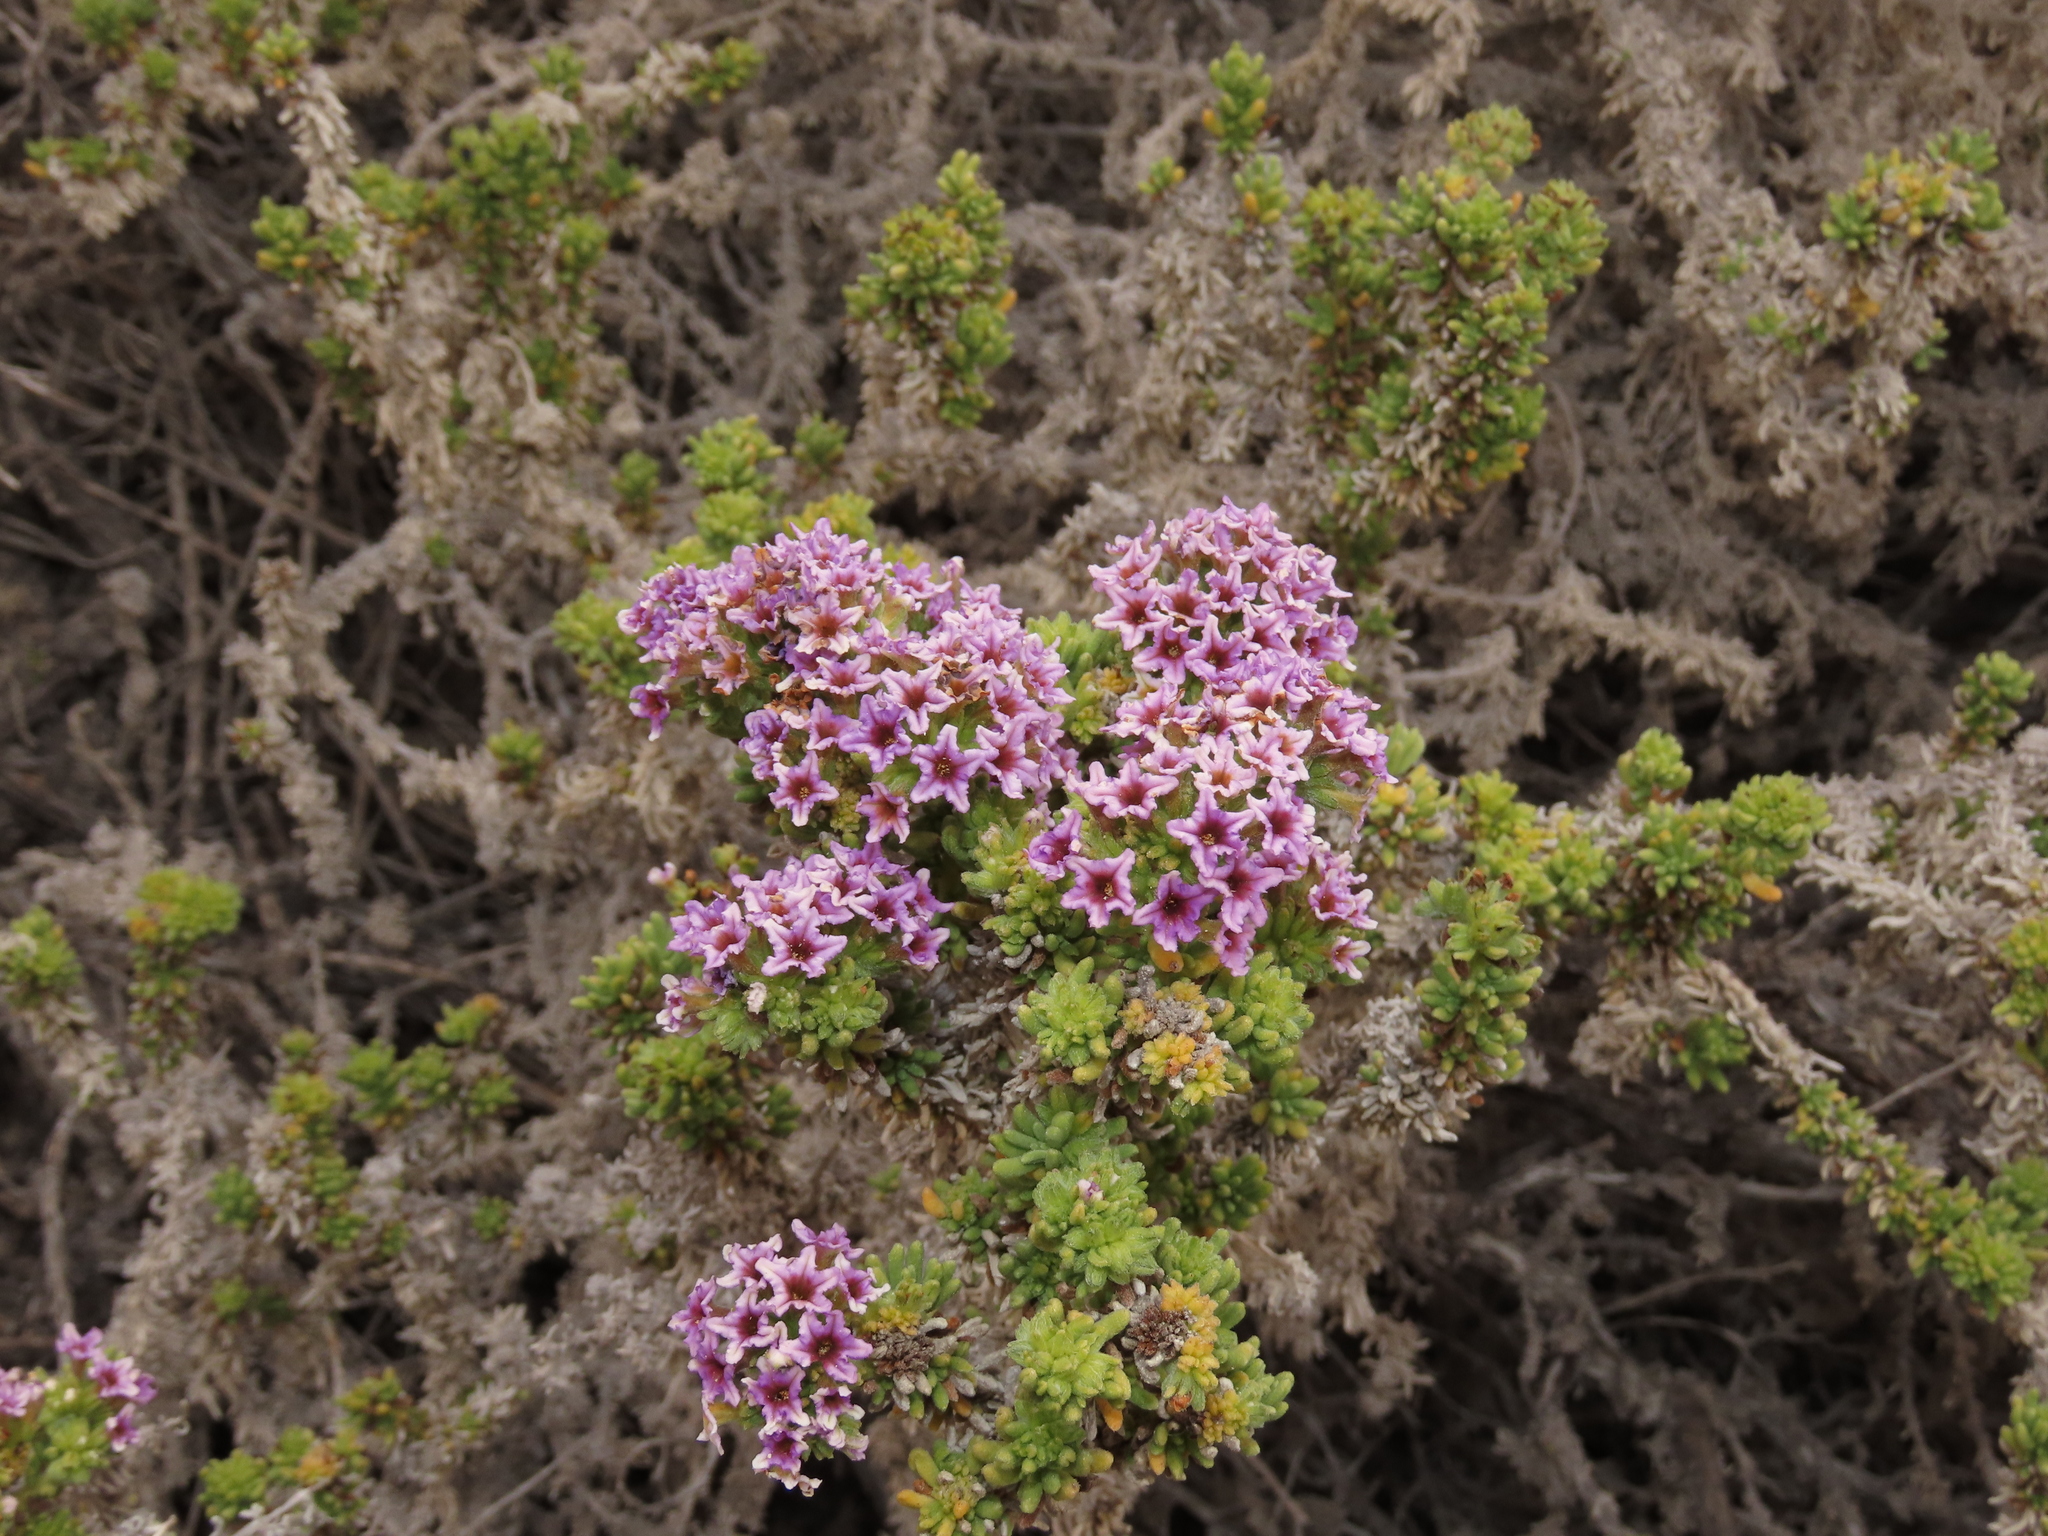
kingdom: Plantae
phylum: Tracheophyta
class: Magnoliopsida
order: Boraginales
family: Heliotropiaceae
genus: Heliotropium
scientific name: Heliotropium pycnophyllum
